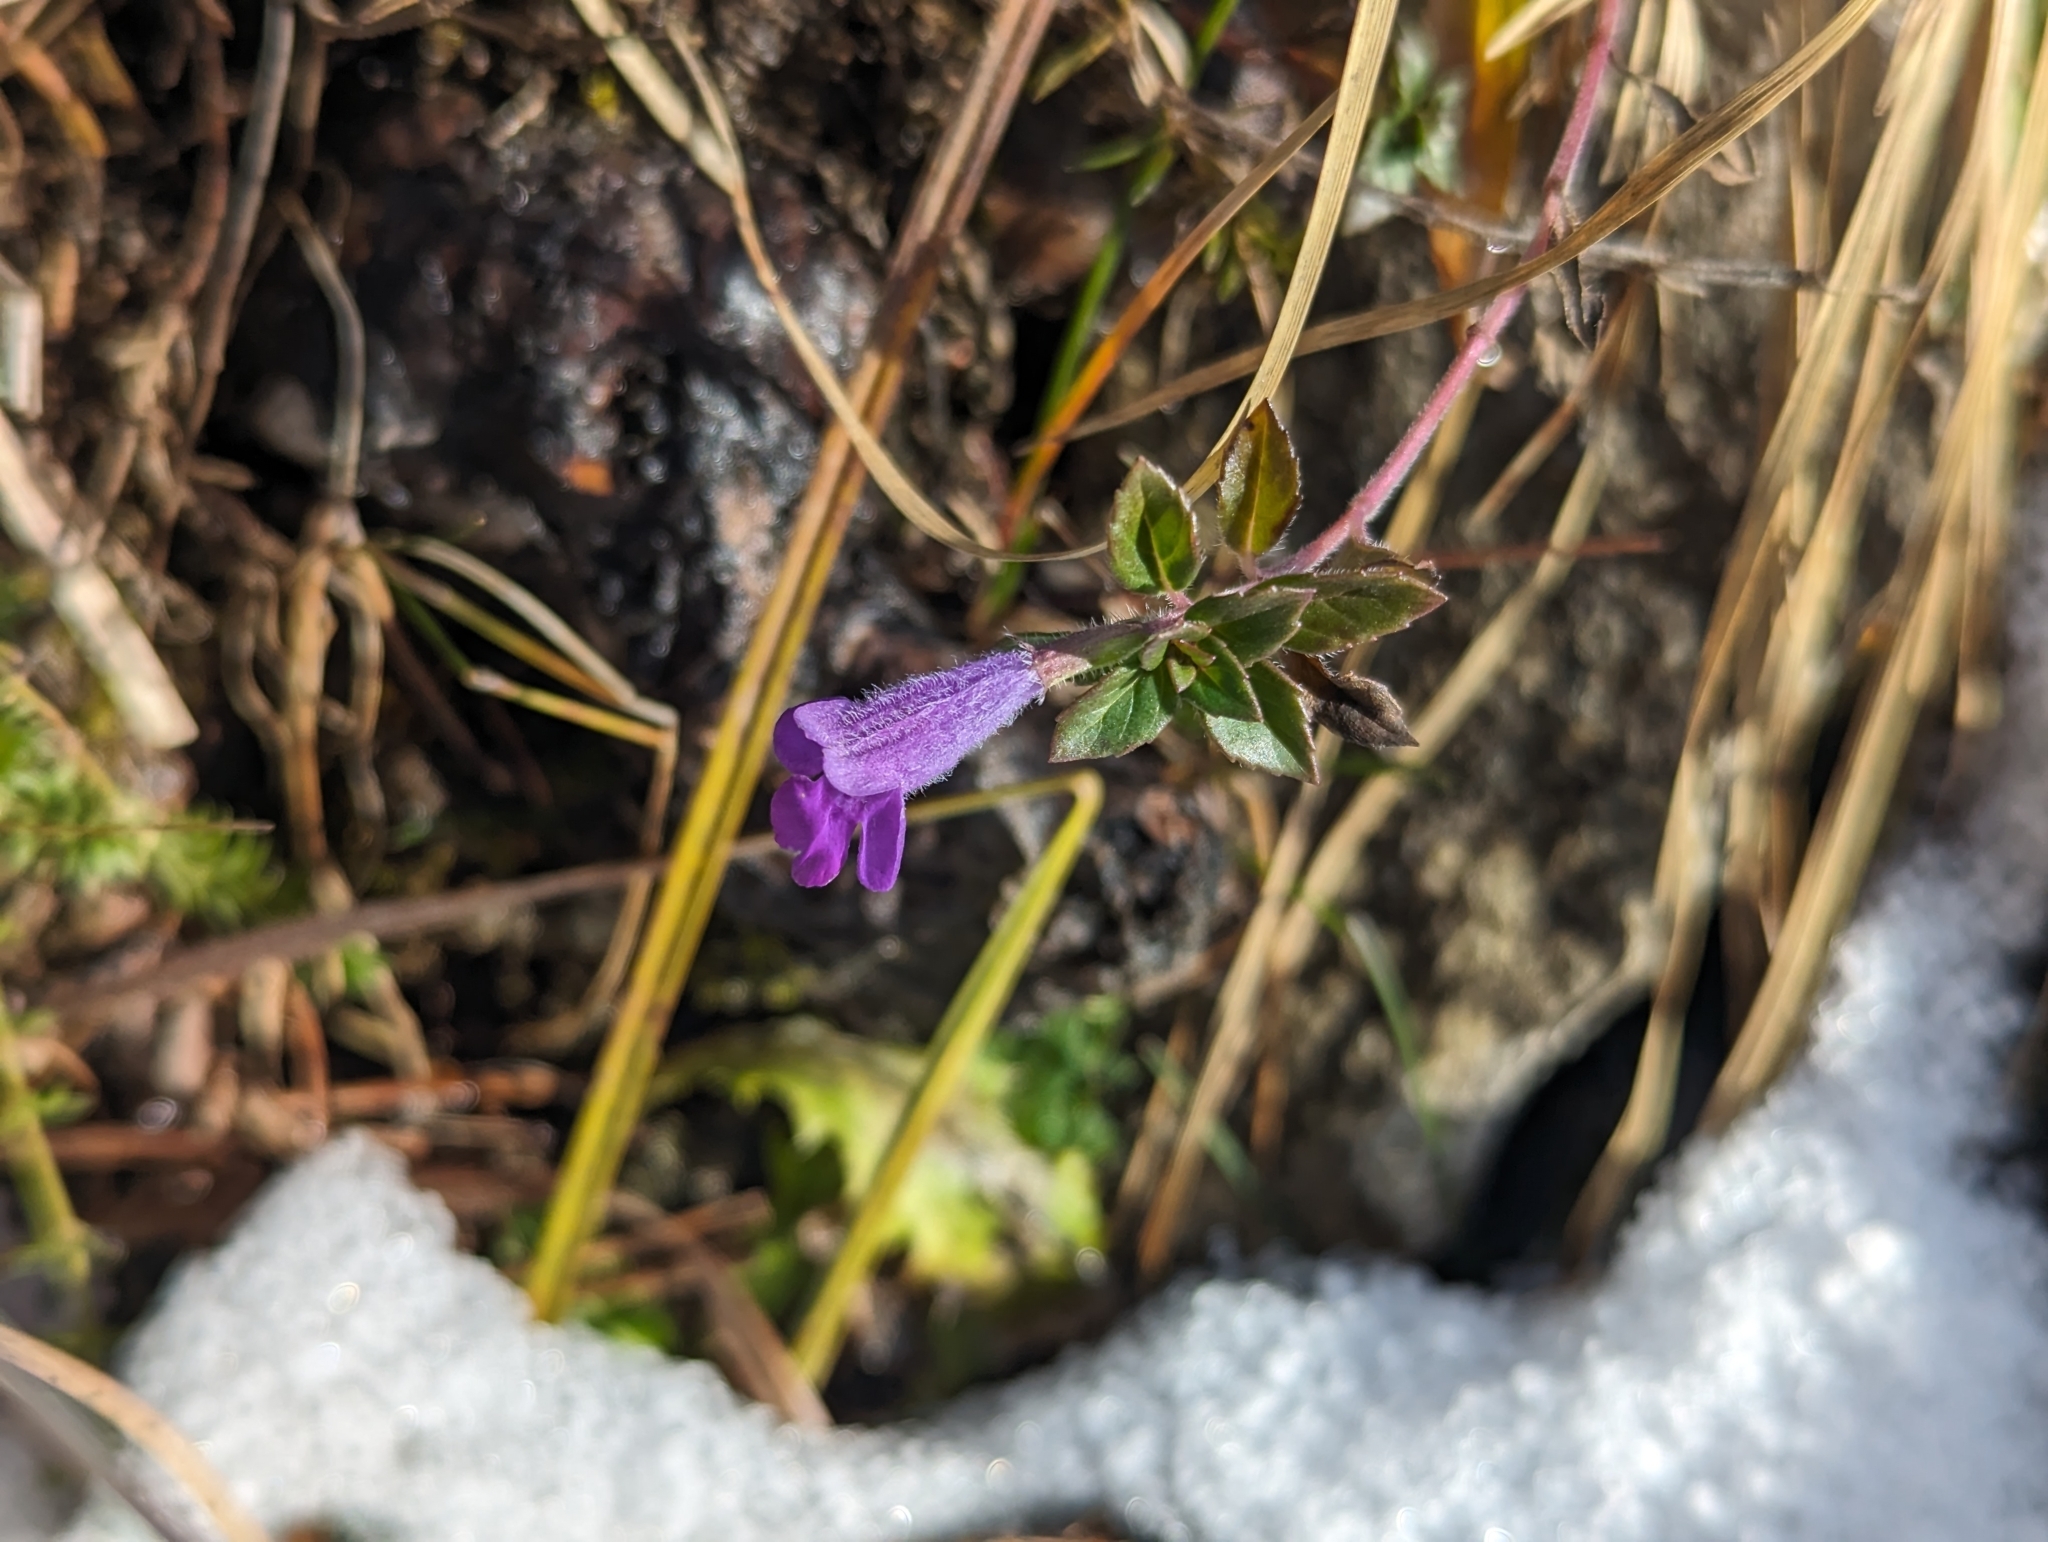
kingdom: Plantae
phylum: Tracheophyta
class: Magnoliopsida
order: Lamiales
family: Lamiaceae
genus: Clinopodium
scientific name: Clinopodium alpinum
